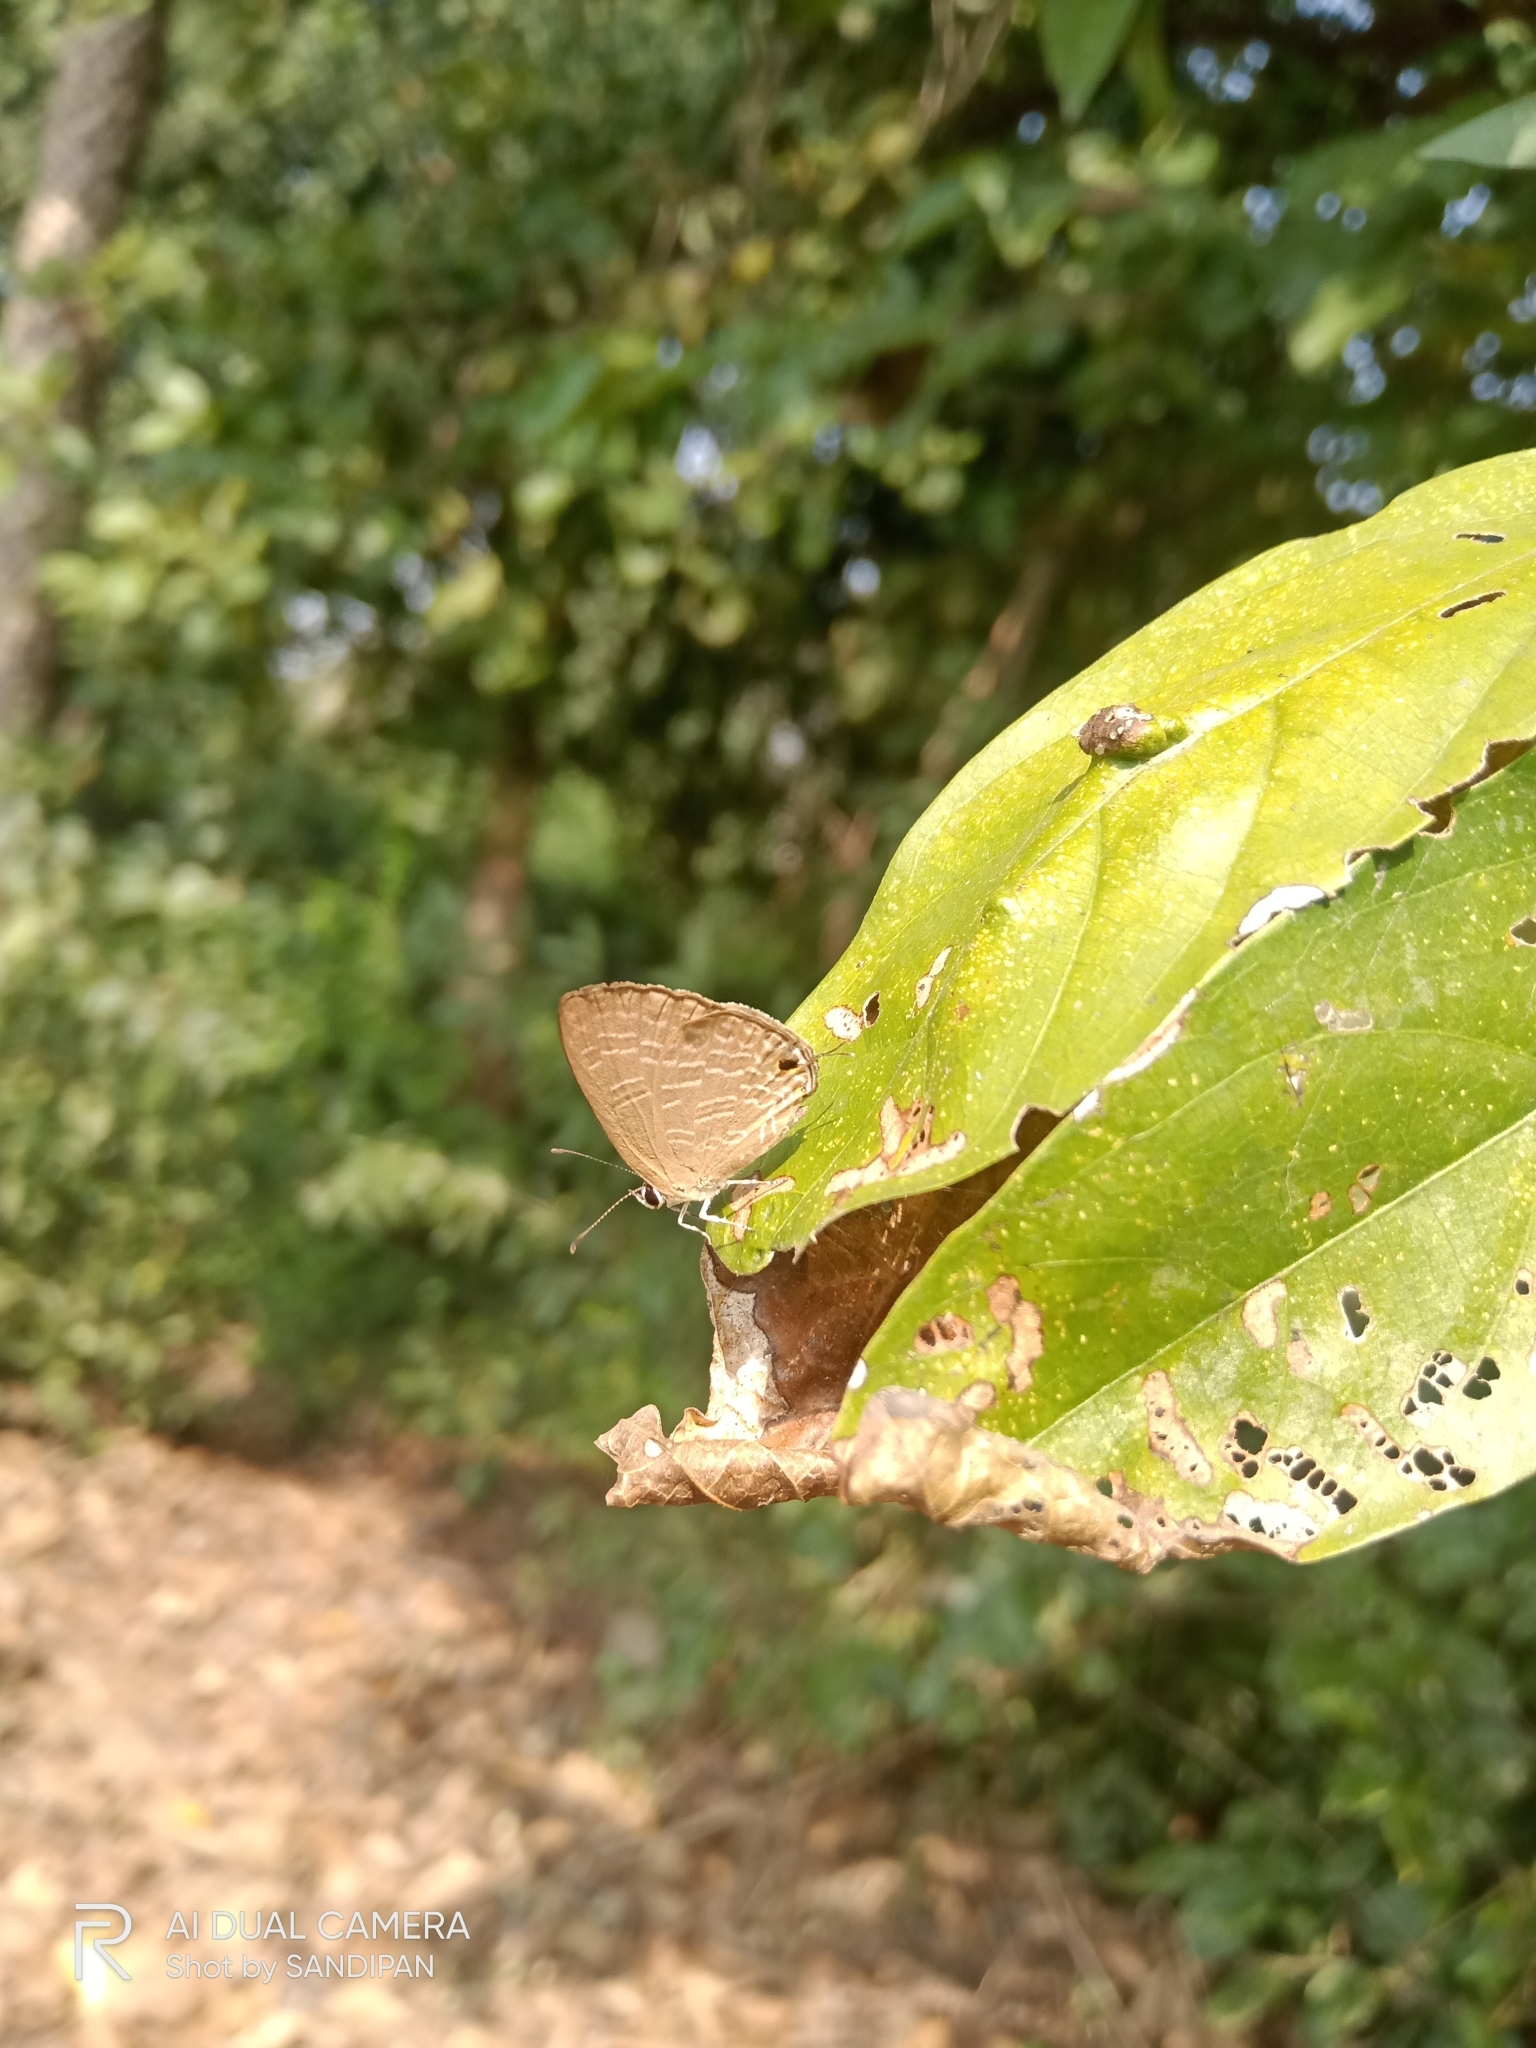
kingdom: Animalia
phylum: Arthropoda
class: Insecta
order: Lepidoptera
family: Lycaenidae
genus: Jamides
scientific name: Jamides bochus
